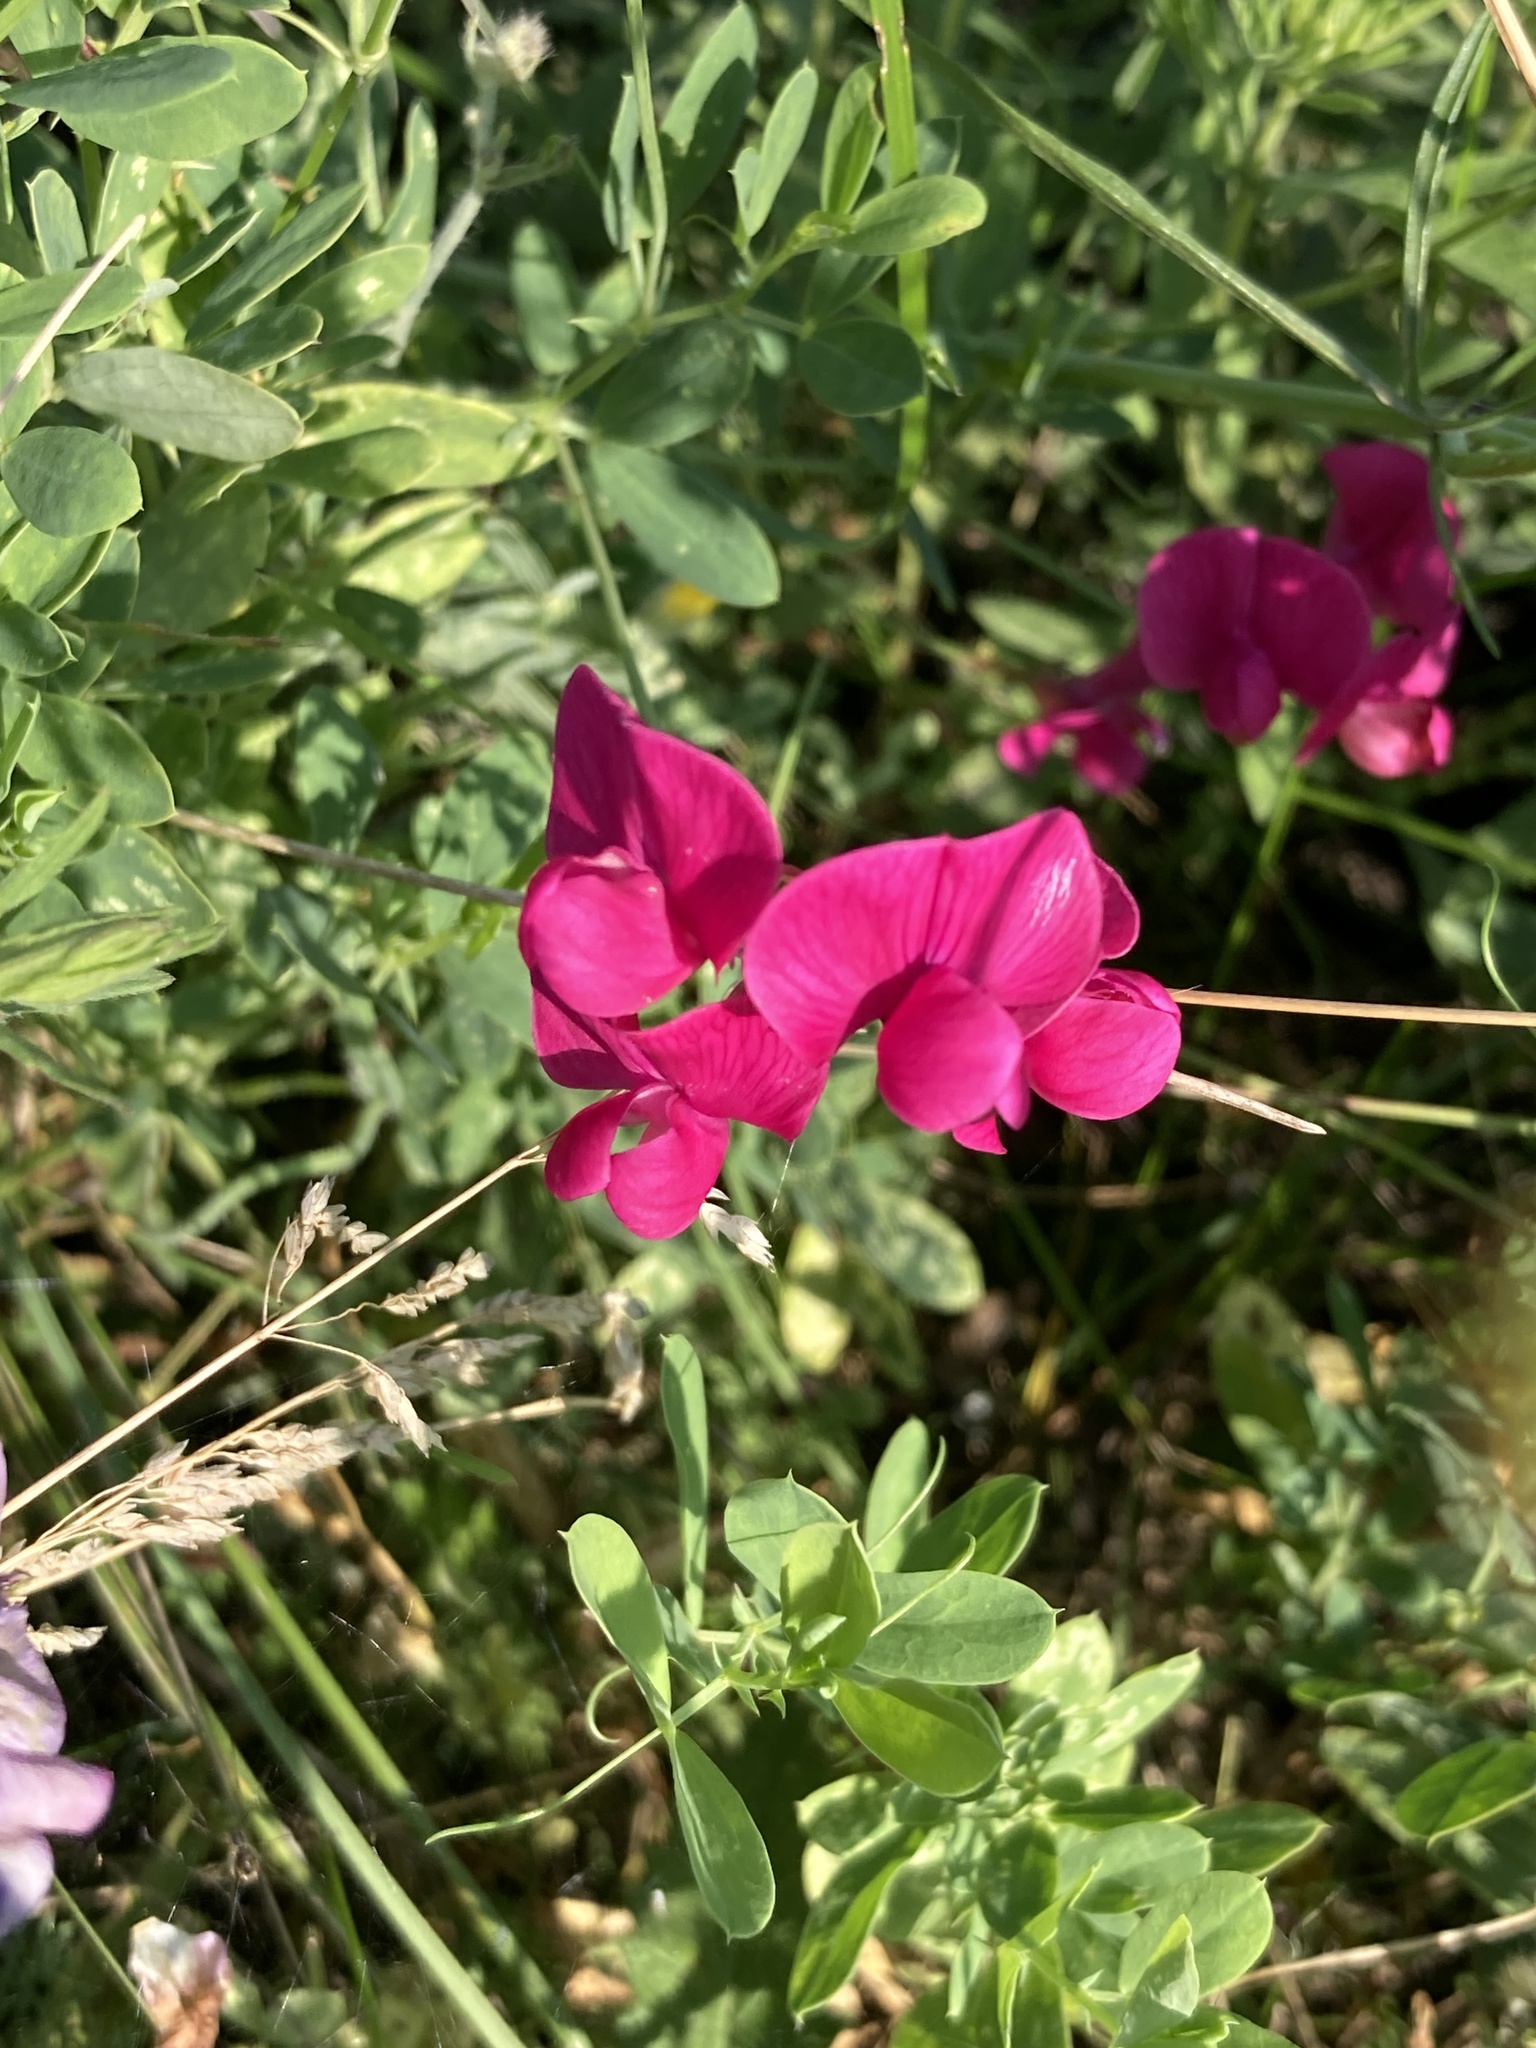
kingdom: Plantae
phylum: Tracheophyta
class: Magnoliopsida
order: Fabales
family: Fabaceae
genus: Lathyrus
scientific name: Lathyrus tuberosus
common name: Tuberous pea
